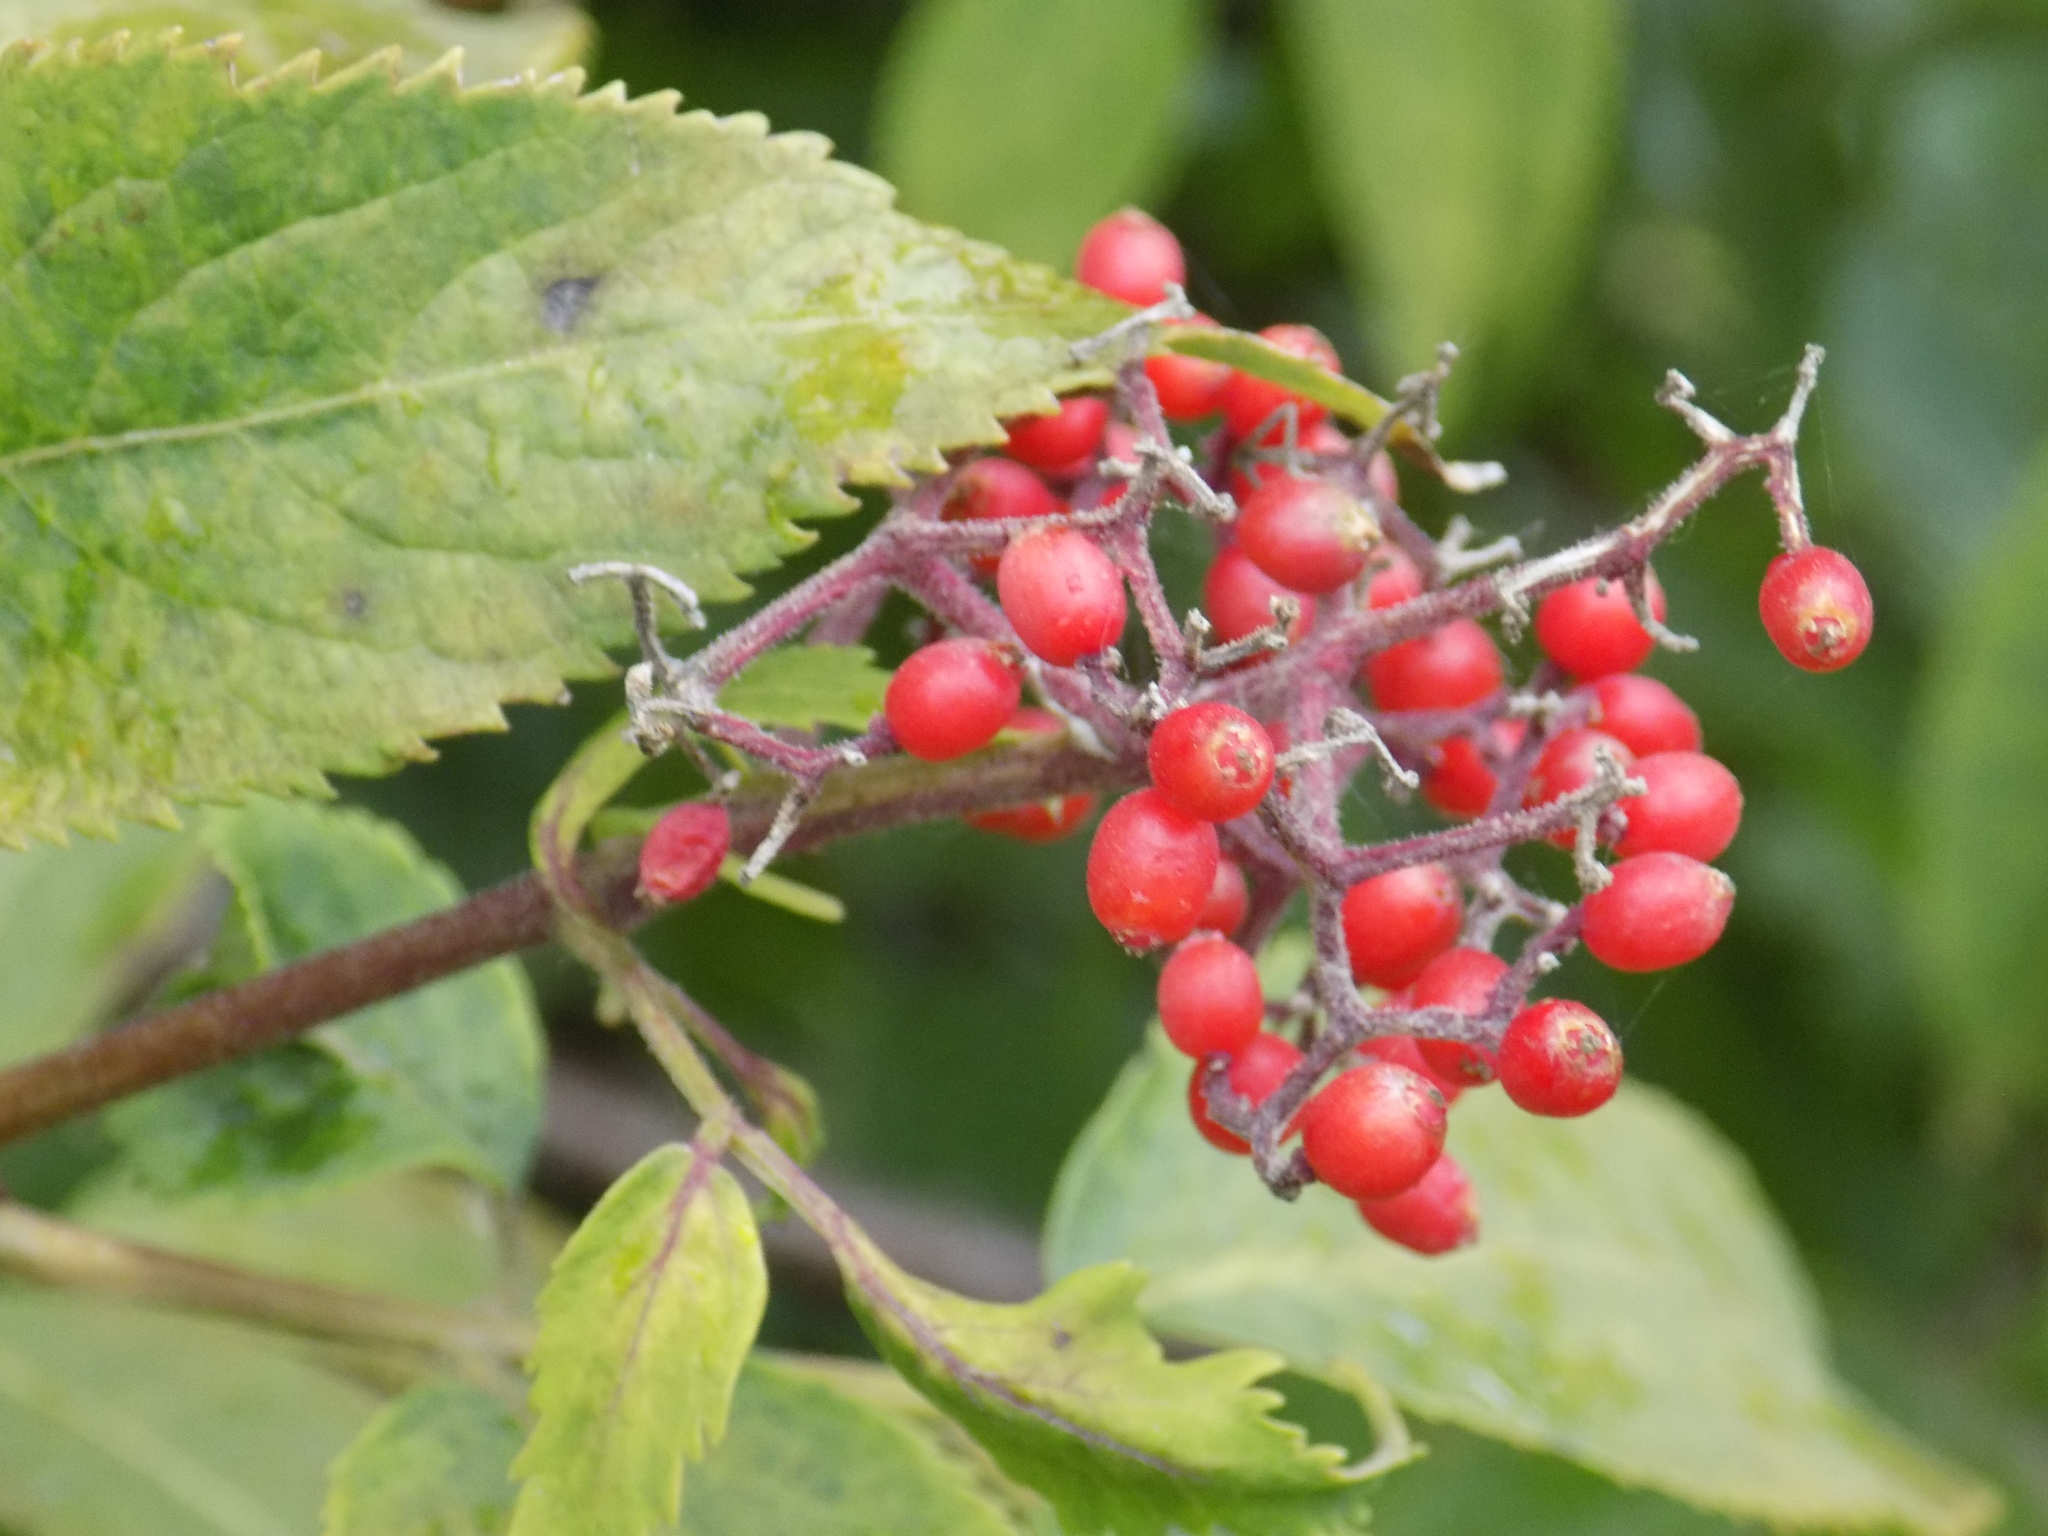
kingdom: Plantae
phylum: Tracheophyta
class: Magnoliopsida
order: Dipsacales
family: Viburnaceae
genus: Sambucus
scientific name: Sambucus sibirica
